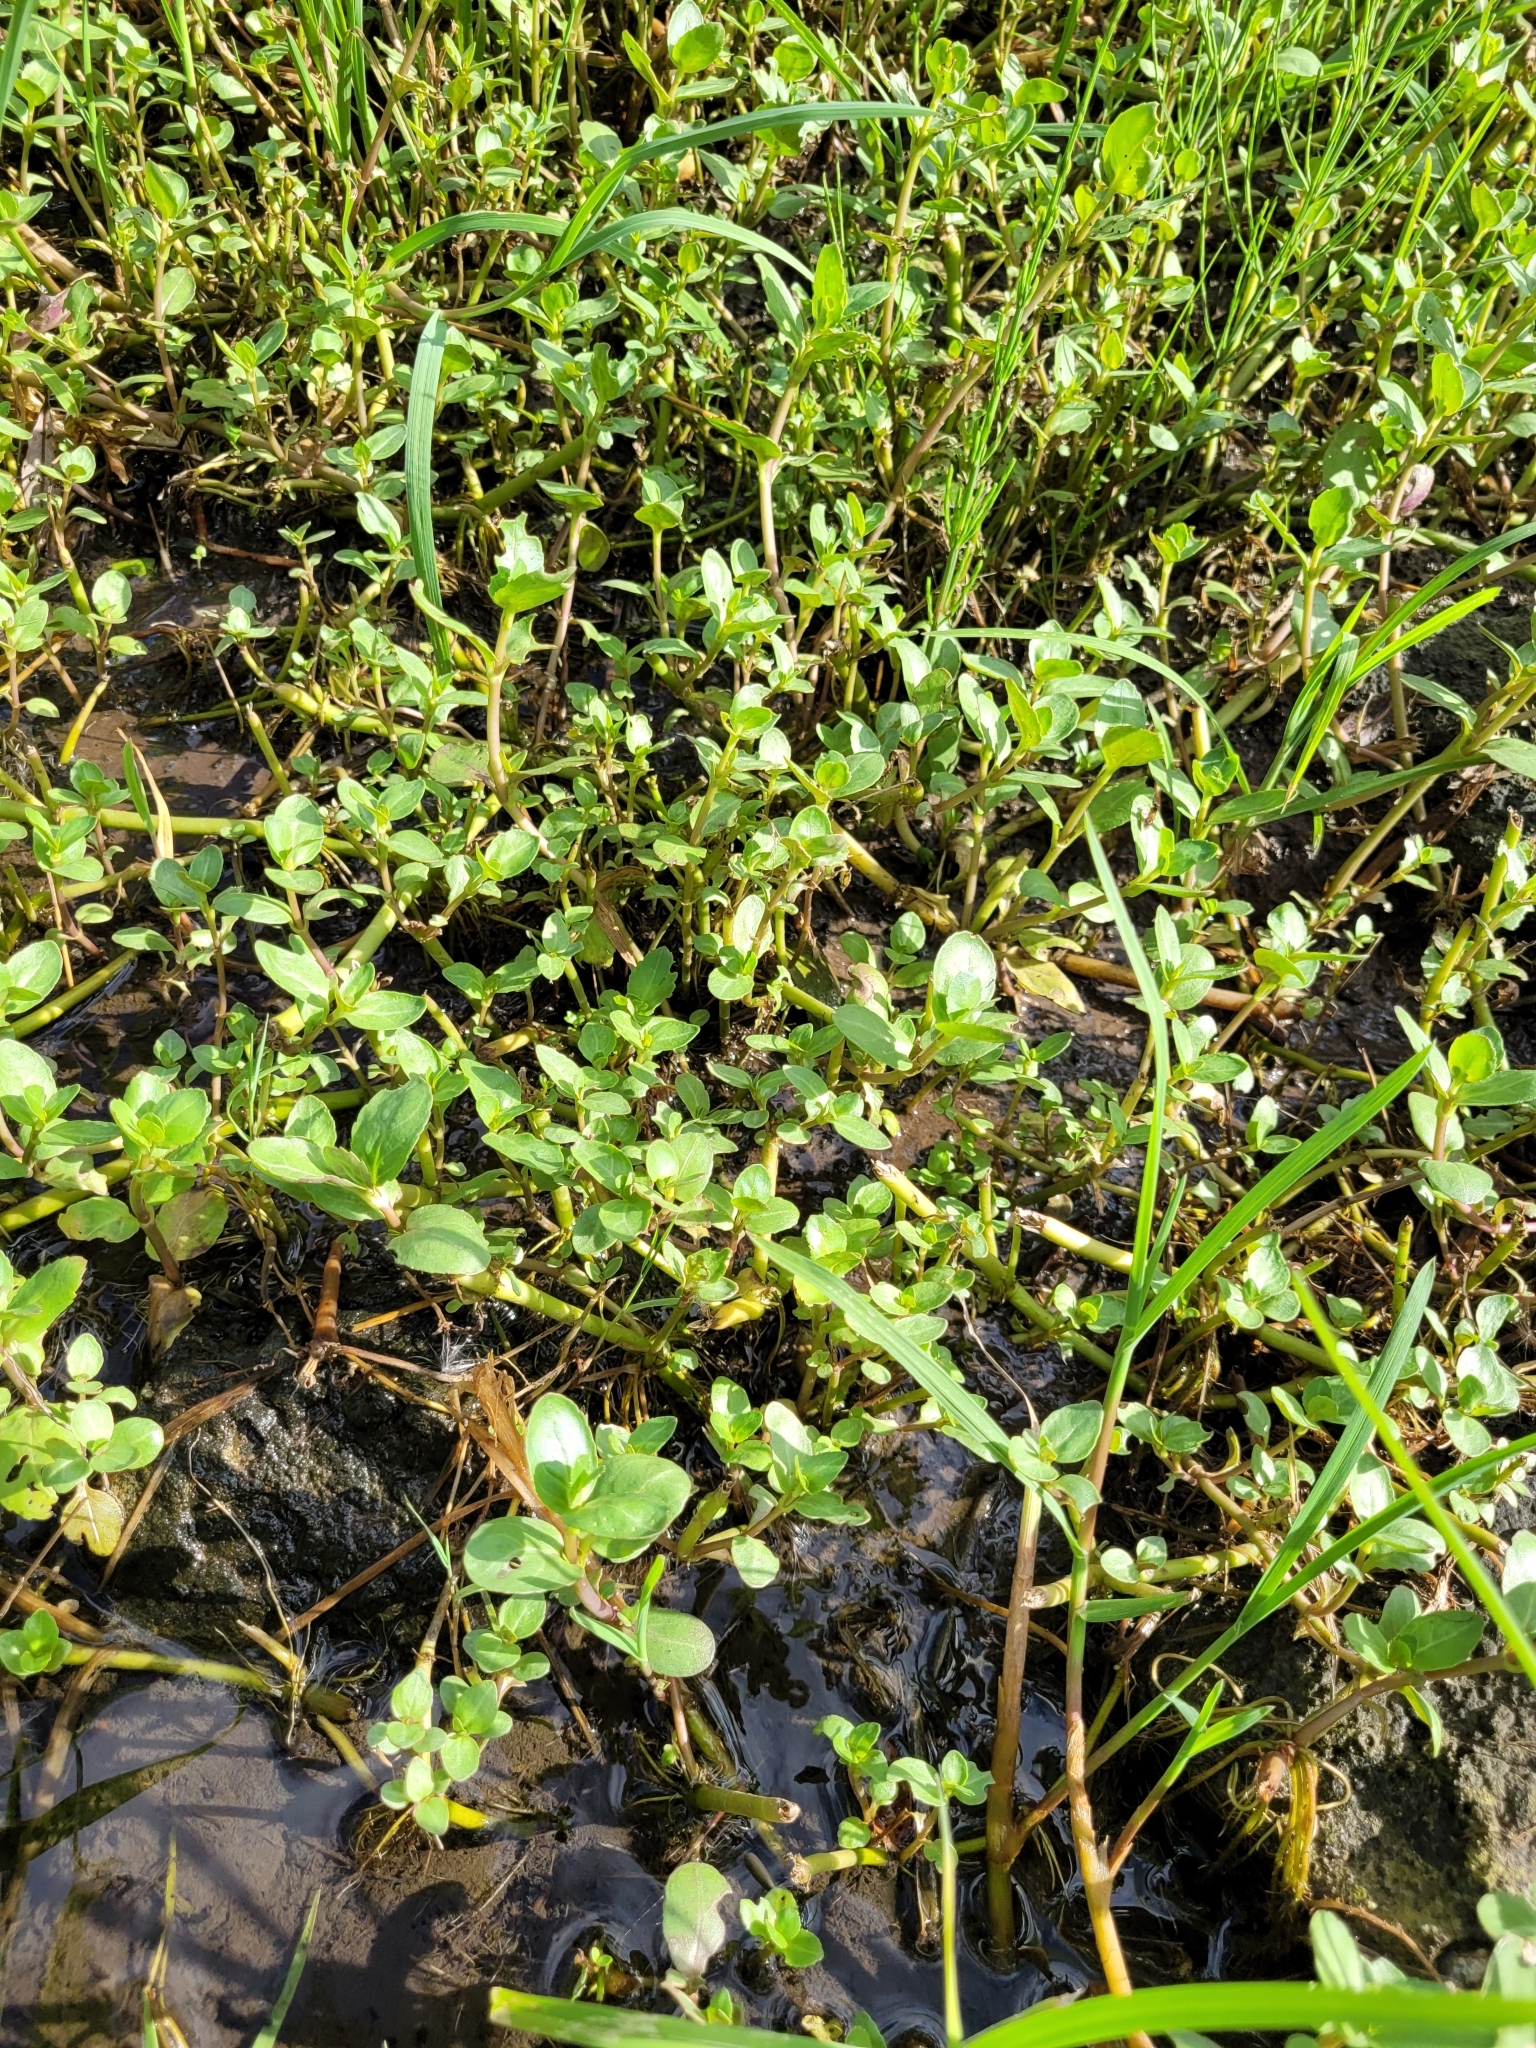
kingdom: Plantae
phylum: Tracheophyta
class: Magnoliopsida
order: Lamiales
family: Plantaginaceae
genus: Veronica
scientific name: Veronica beccabunga
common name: Brooklime
